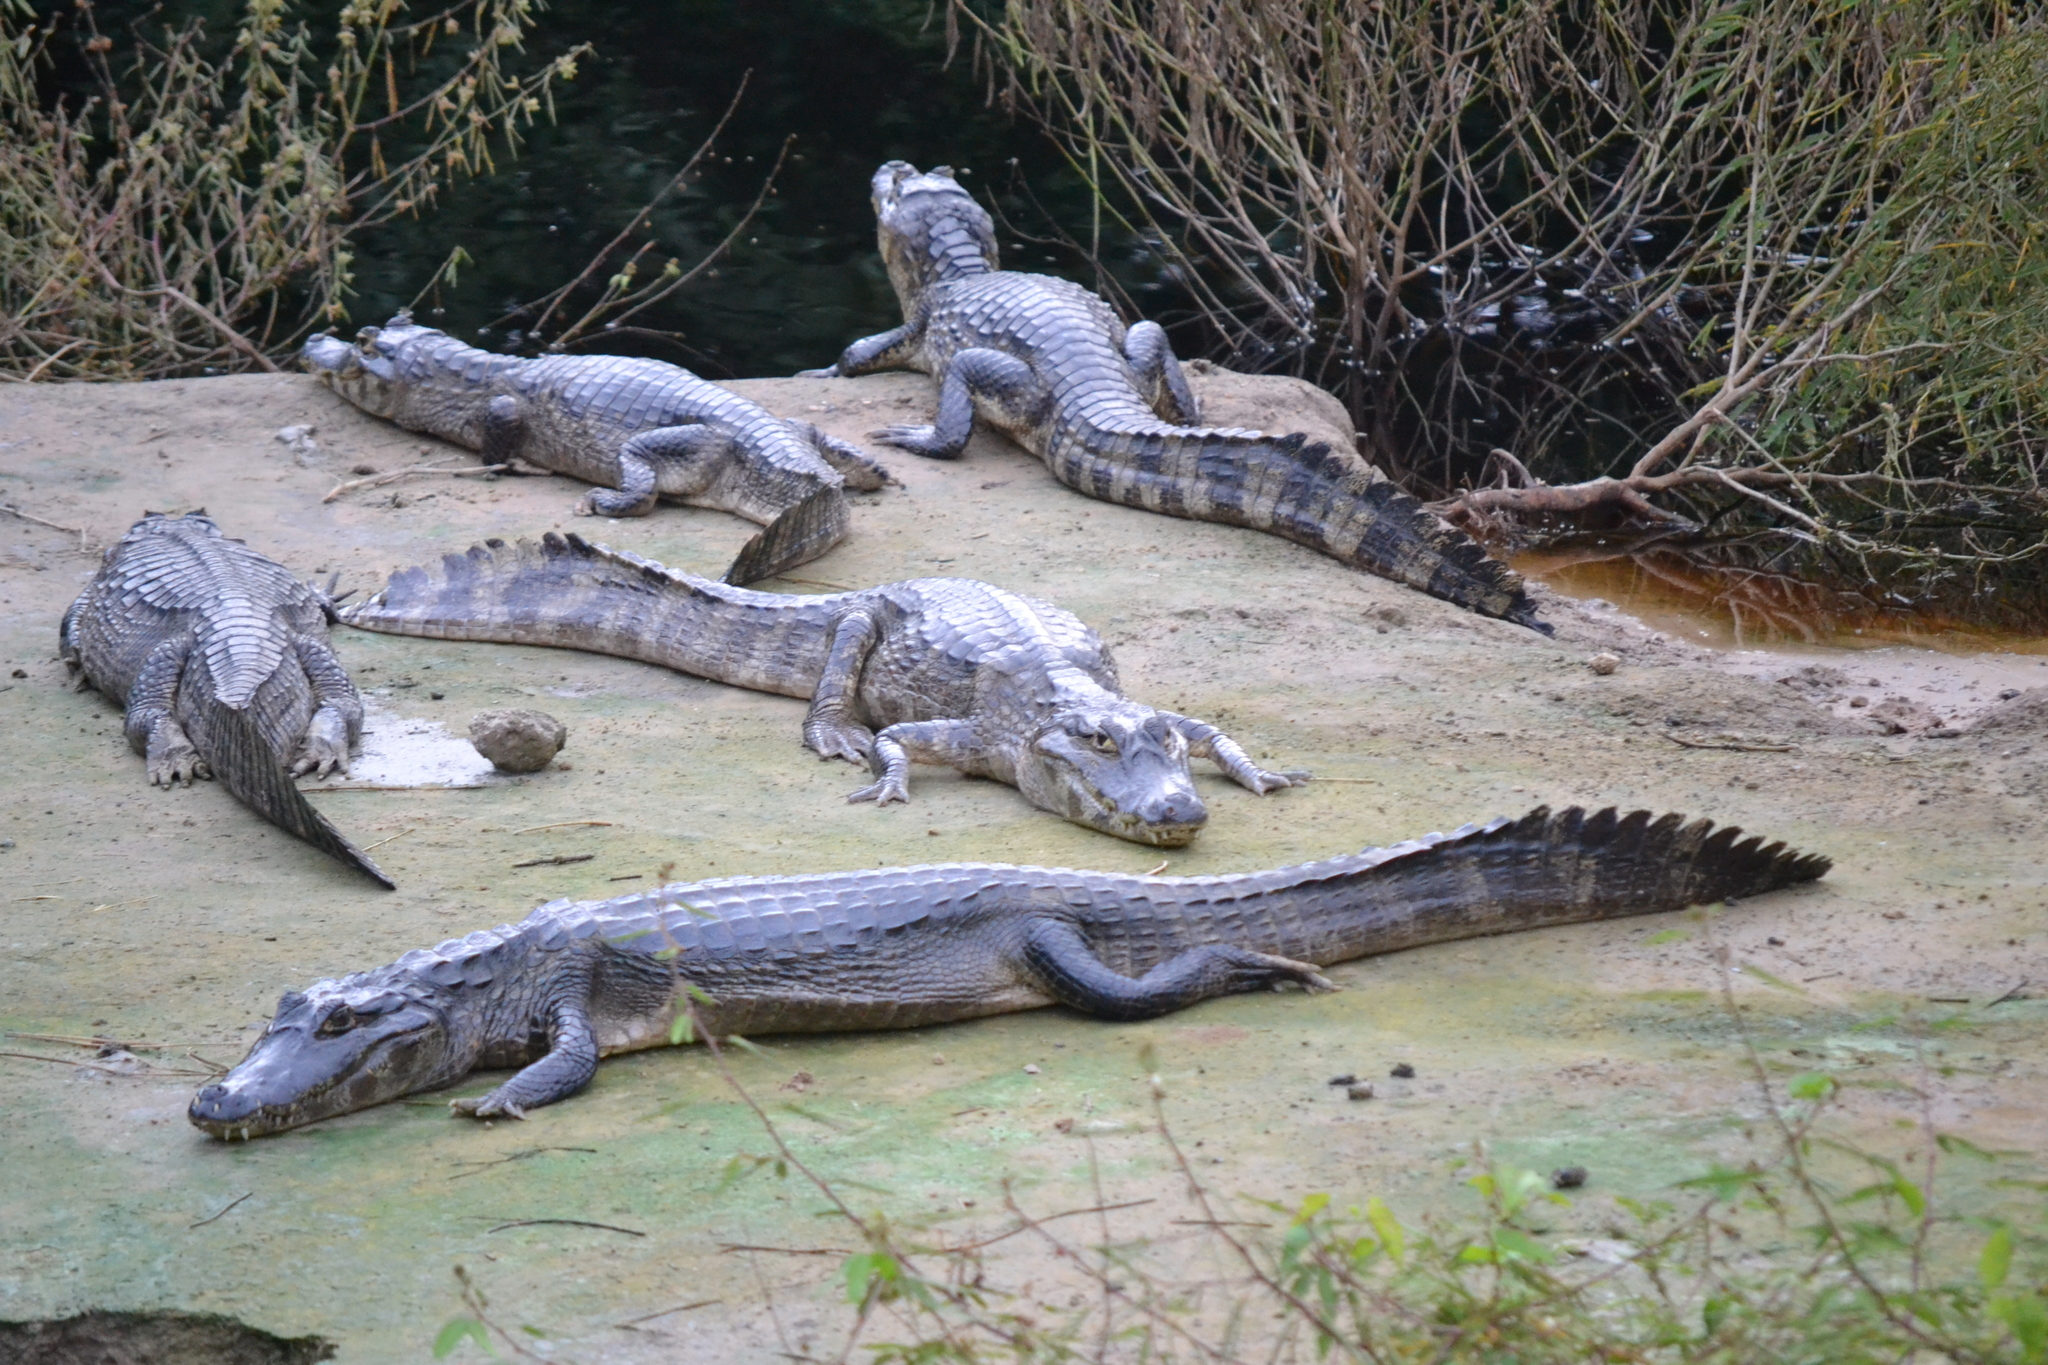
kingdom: Animalia
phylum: Chordata
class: Crocodylia
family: Alligatoridae
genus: Caiman
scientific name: Caiman yacare
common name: Yacare caiman
